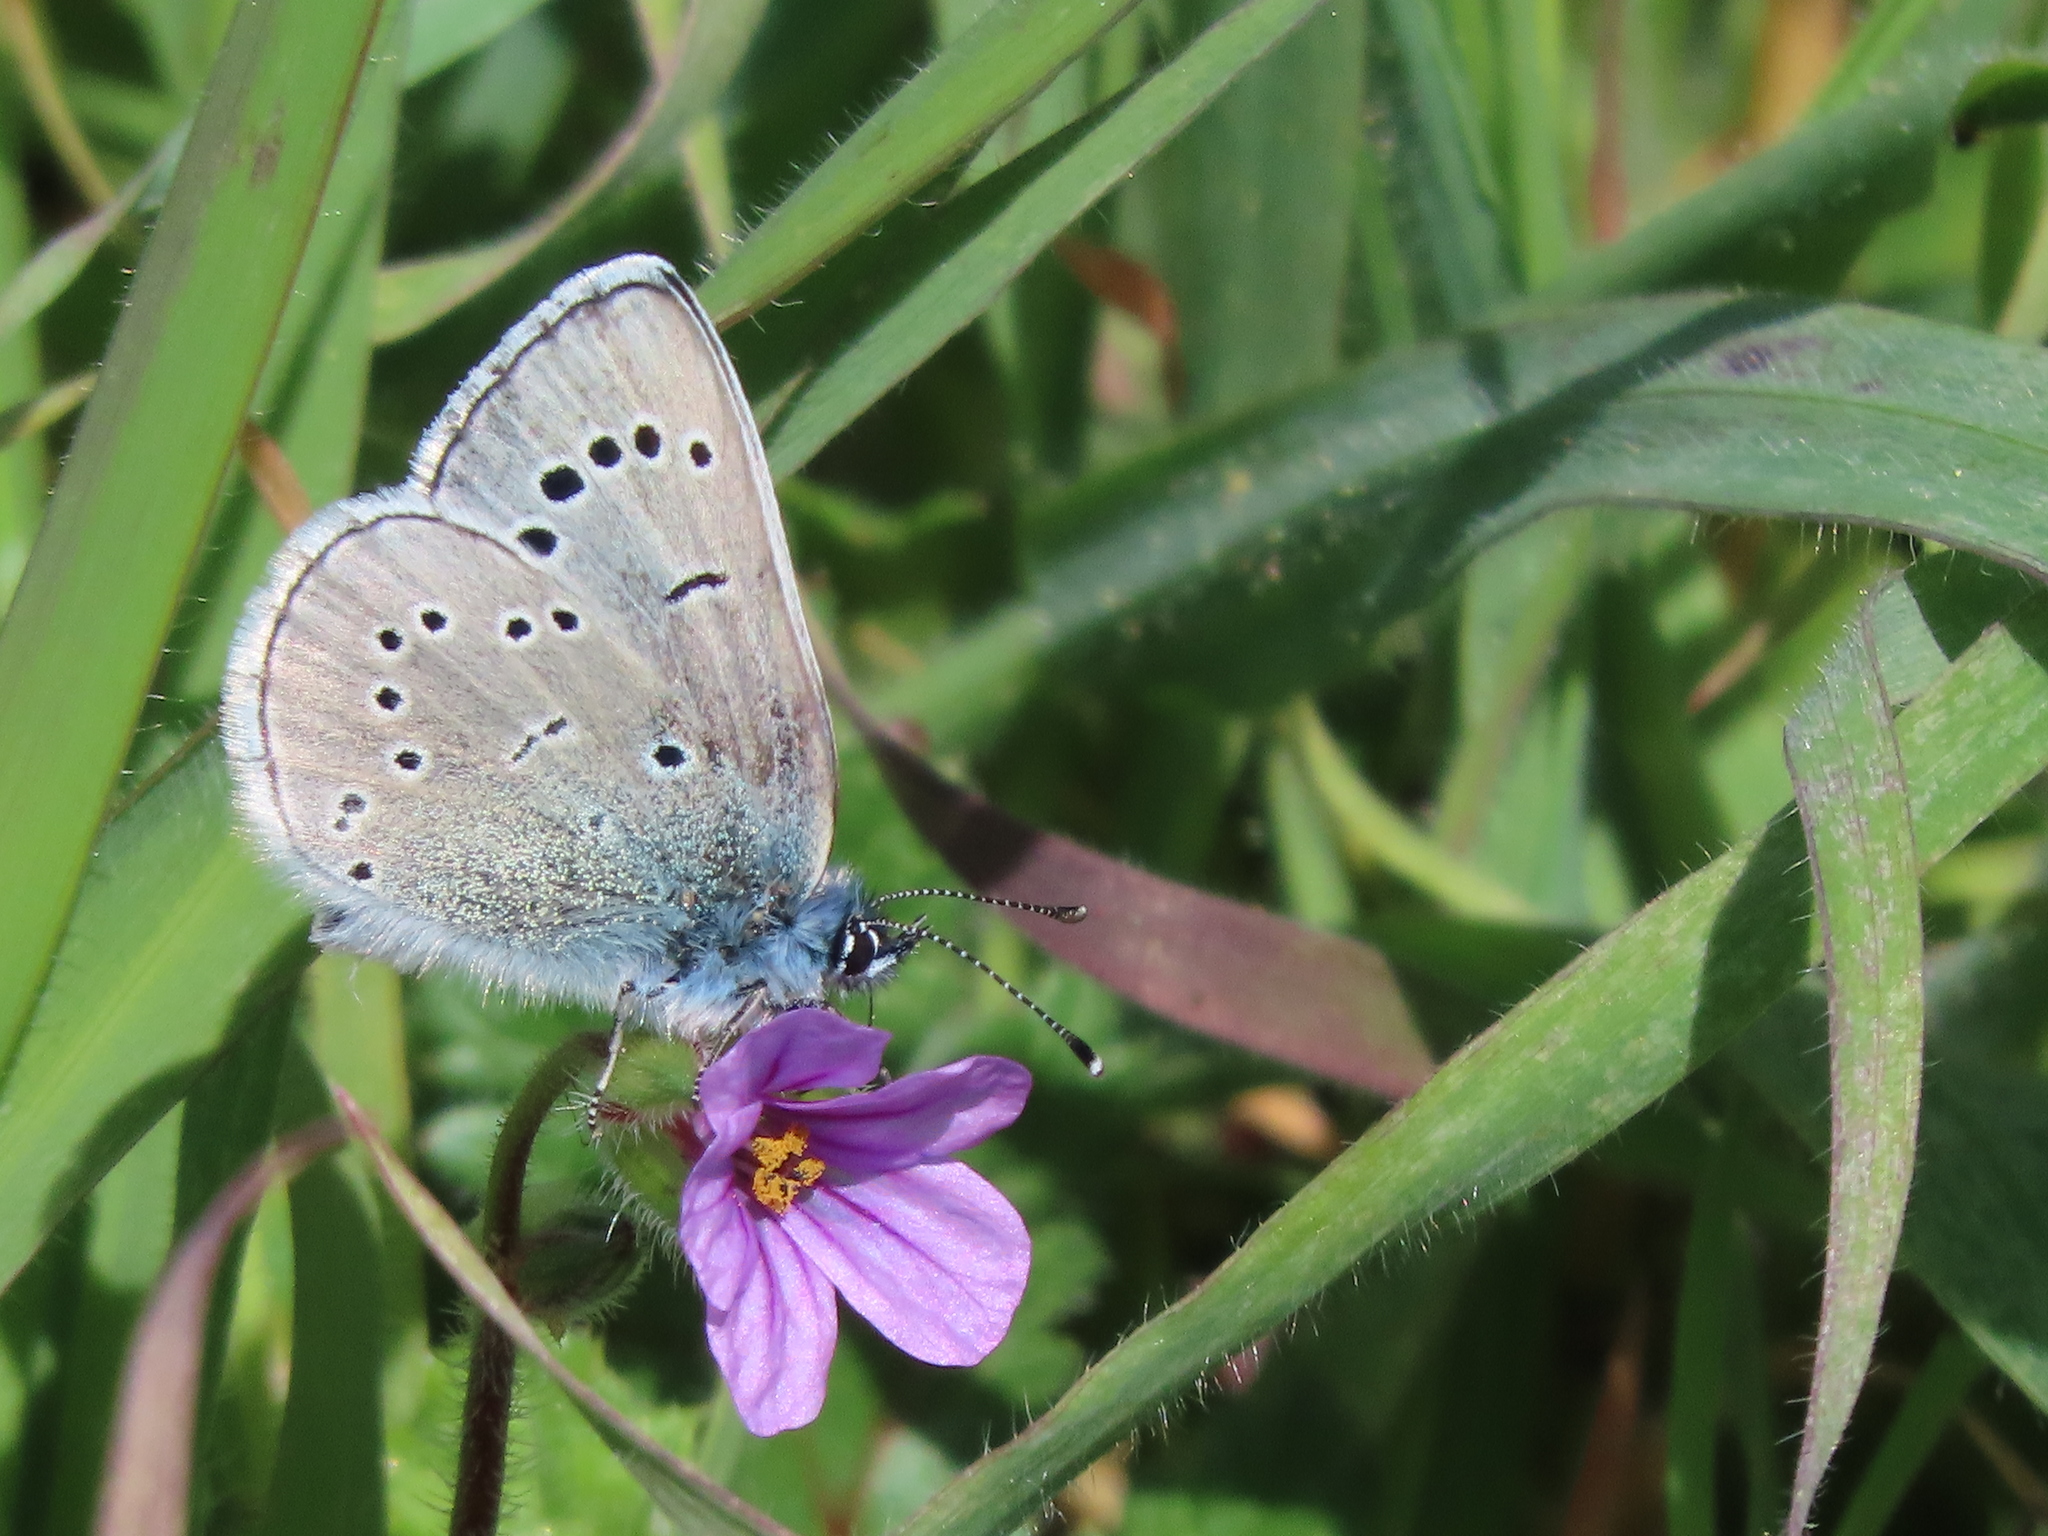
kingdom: Animalia
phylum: Arthropoda
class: Insecta
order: Lepidoptera
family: Lycaenidae
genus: Glaucopsyche
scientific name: Glaucopsyche lygdamus
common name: Silvery blue
